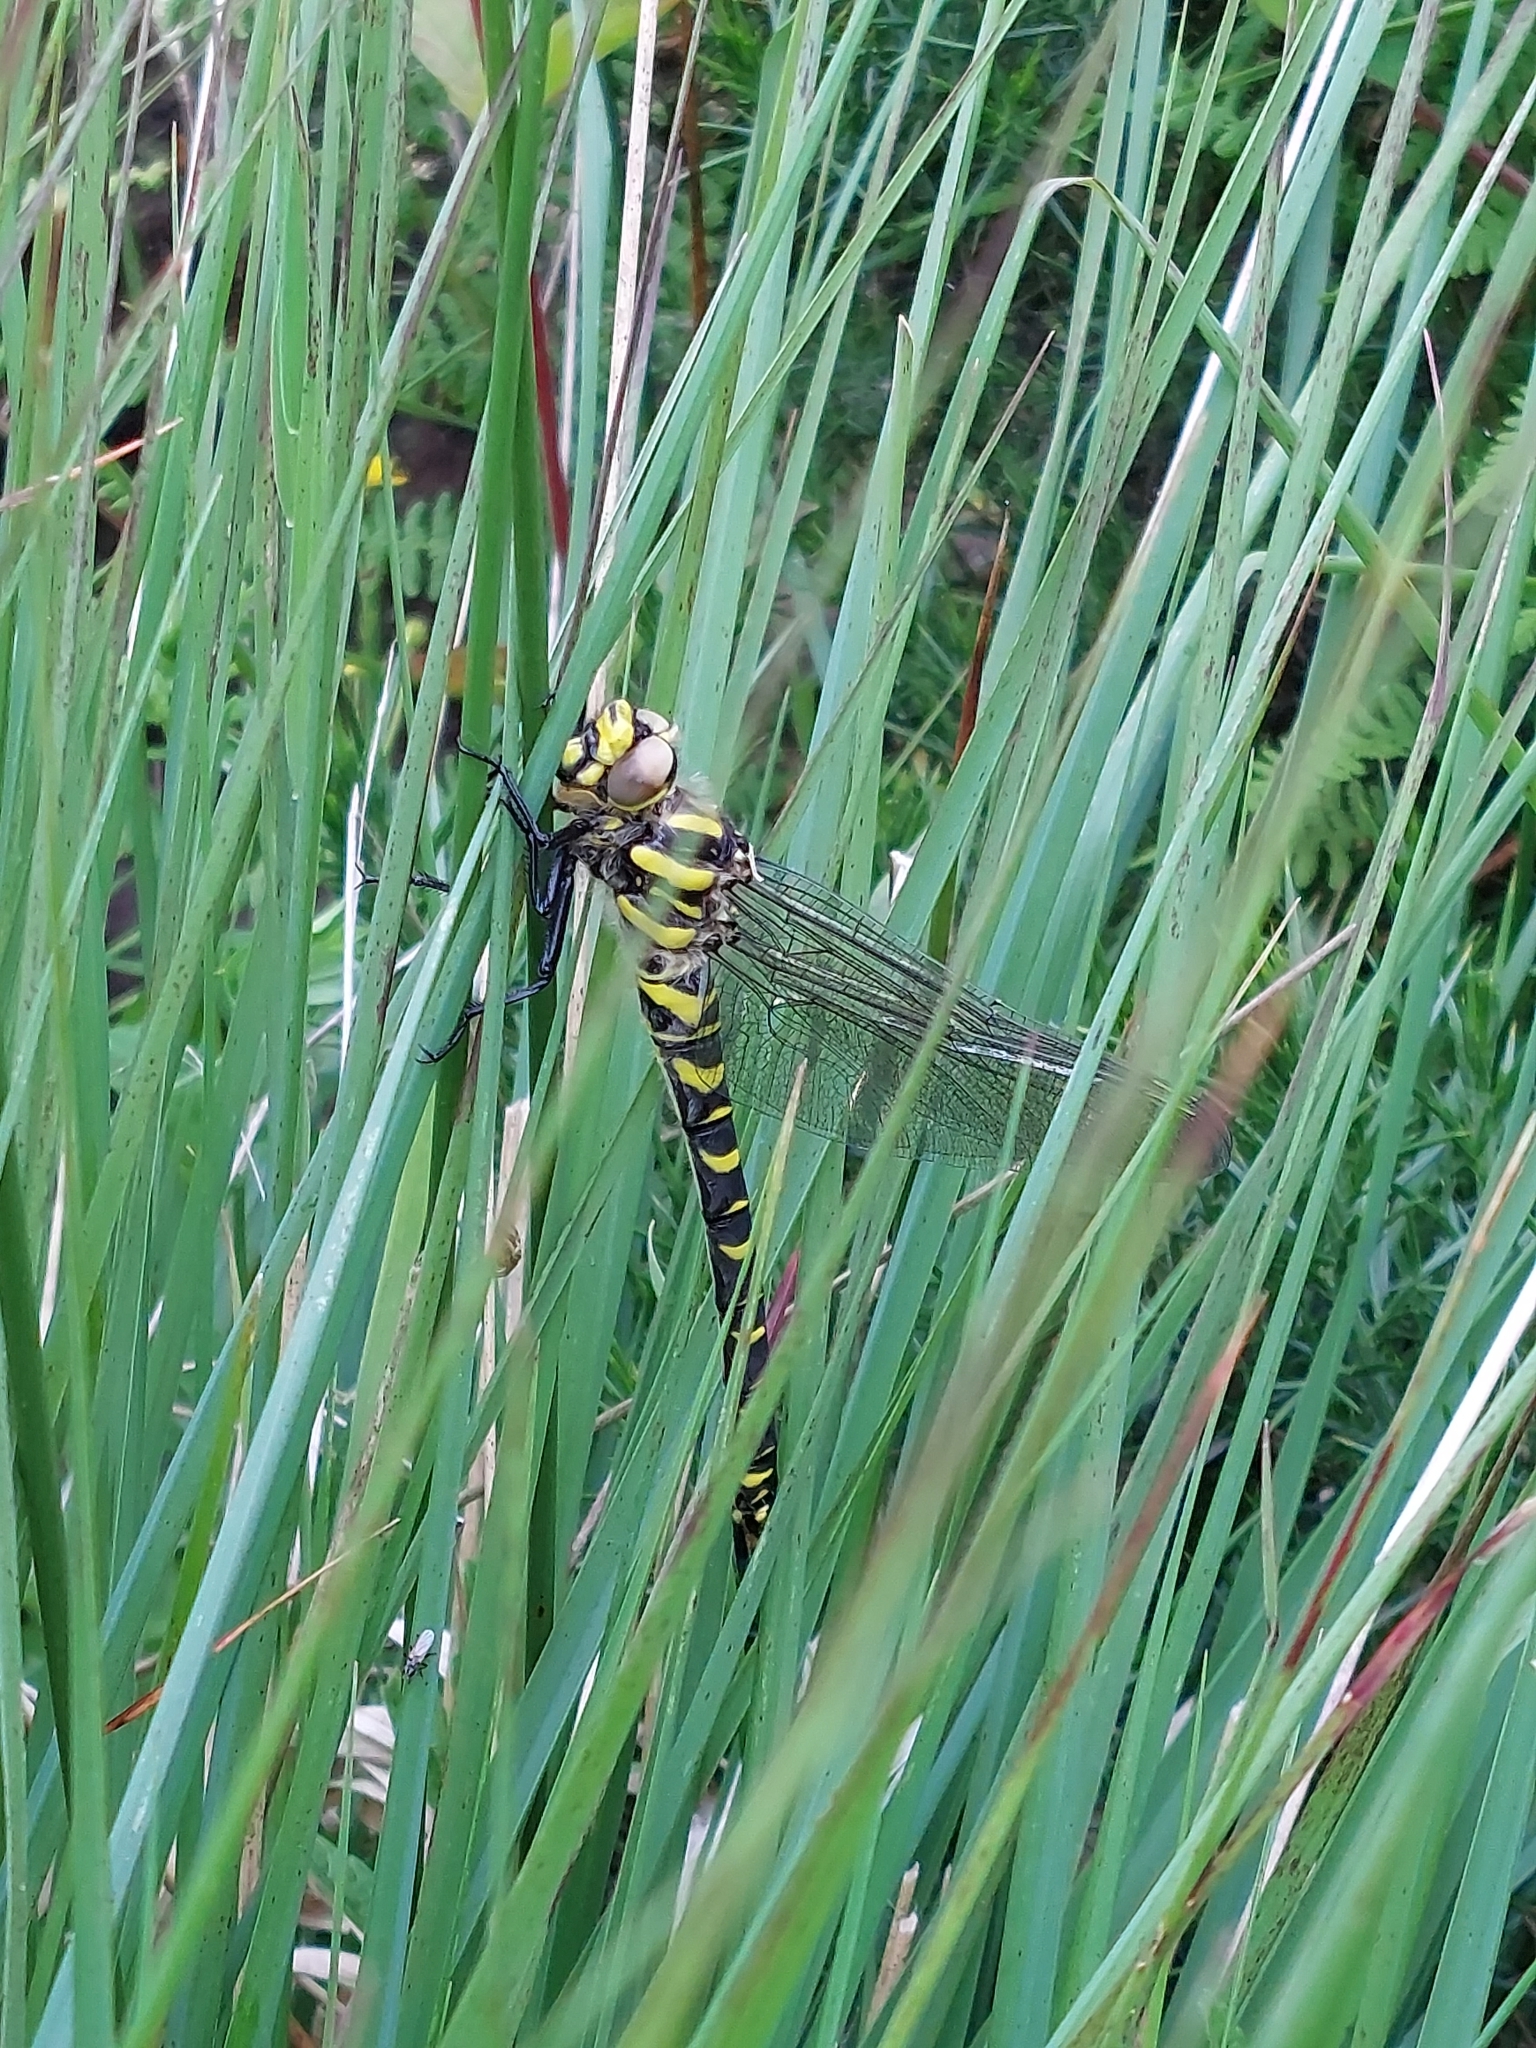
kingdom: Animalia
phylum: Arthropoda
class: Insecta
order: Odonata
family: Cordulegastridae
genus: Cordulegaster
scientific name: Cordulegaster boltonii
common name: Golden-ringed dragonfly
